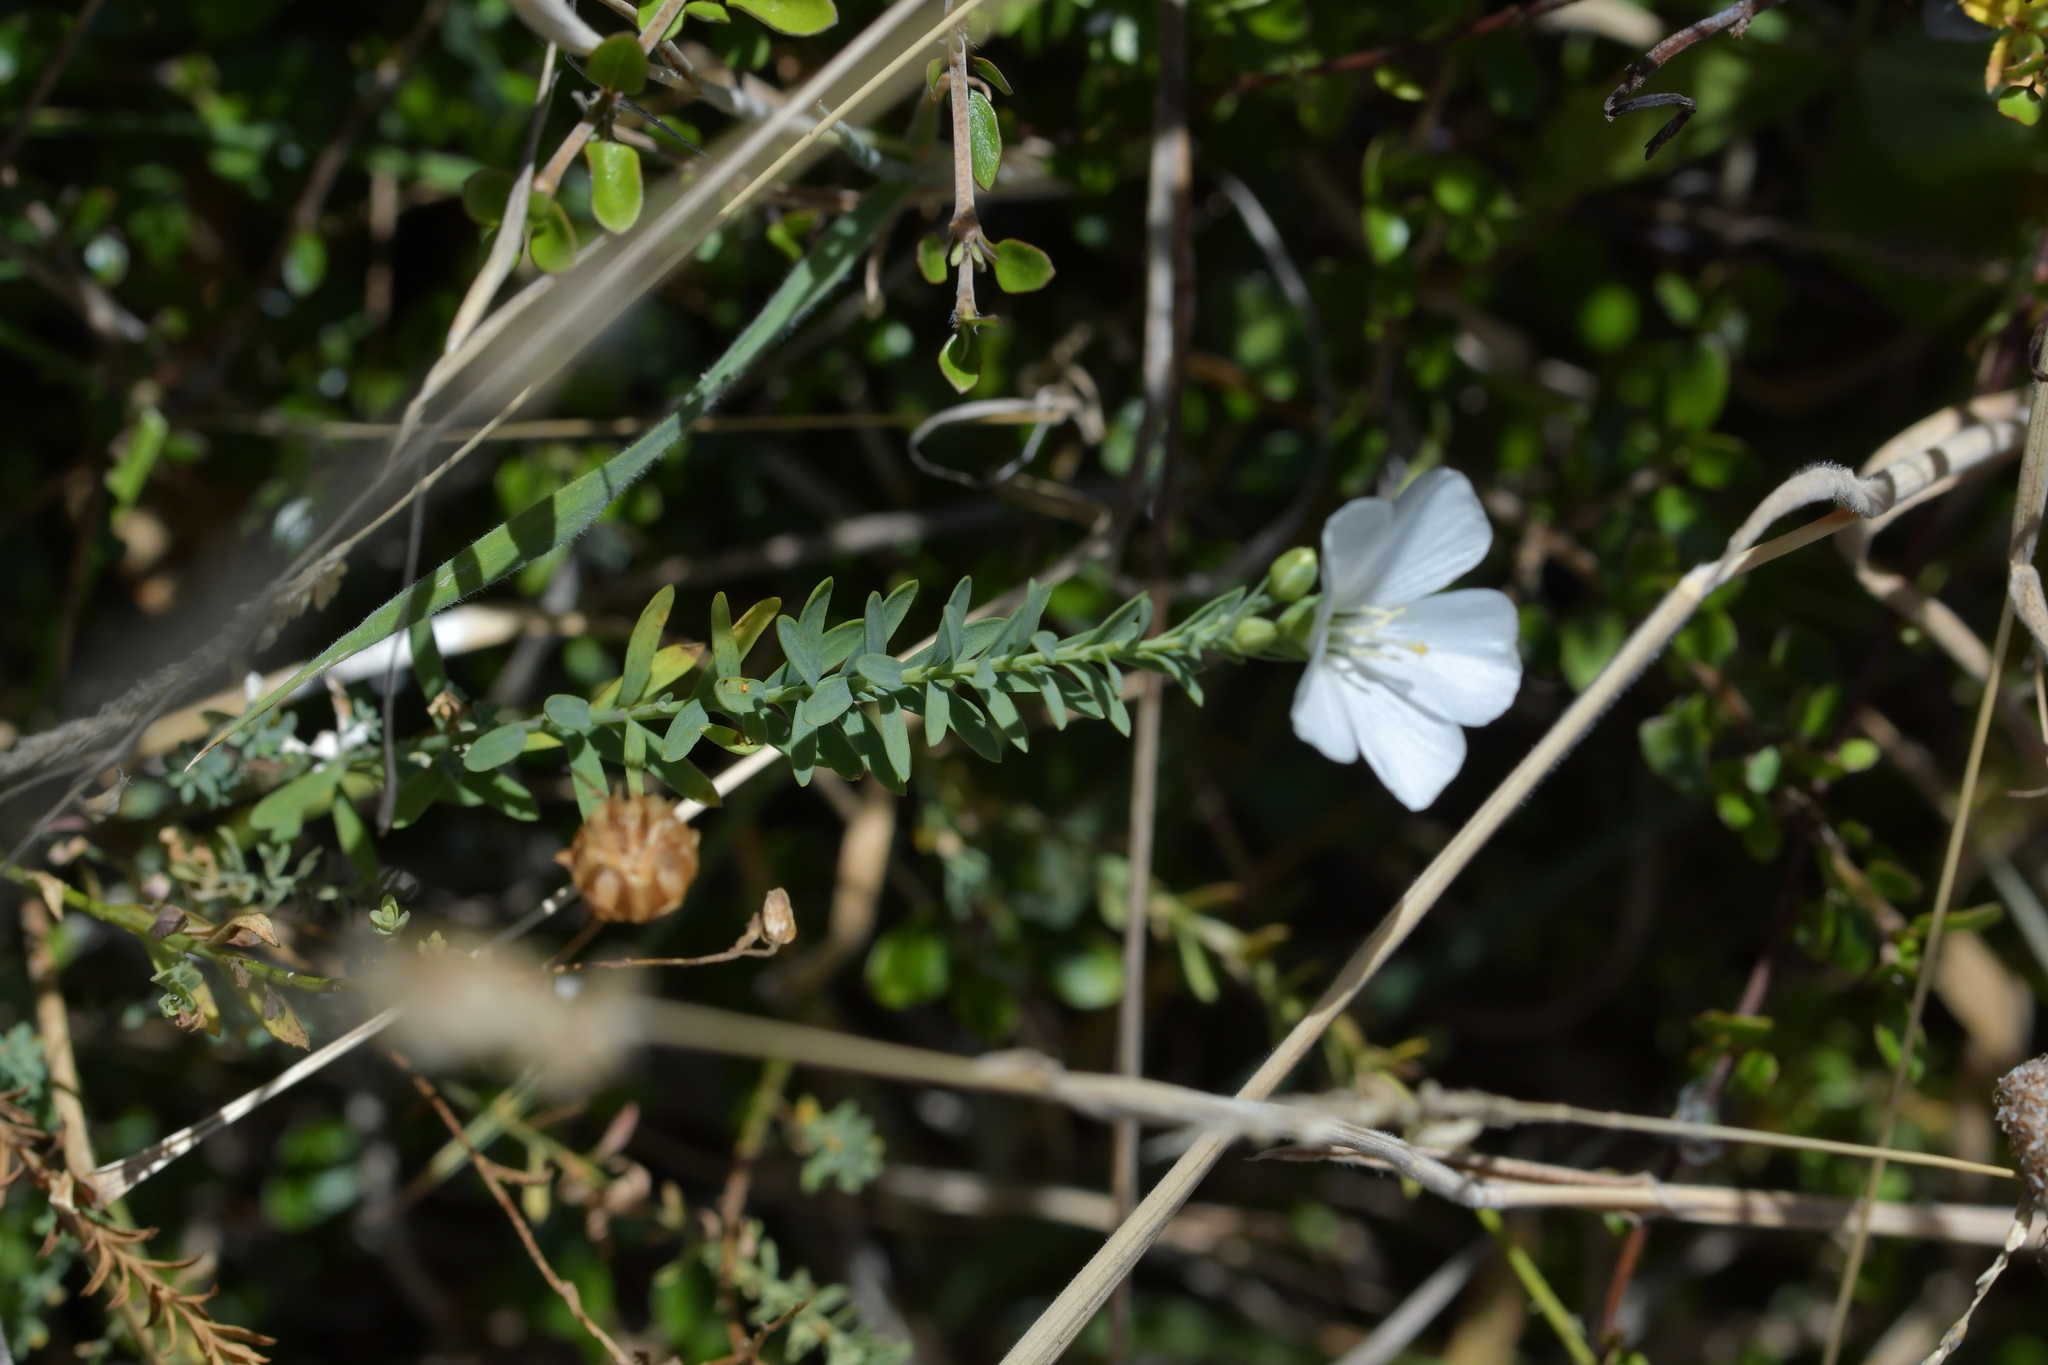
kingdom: Plantae
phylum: Tracheophyta
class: Magnoliopsida
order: Malpighiales
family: Linaceae
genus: Linum
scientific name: Linum monogynum
